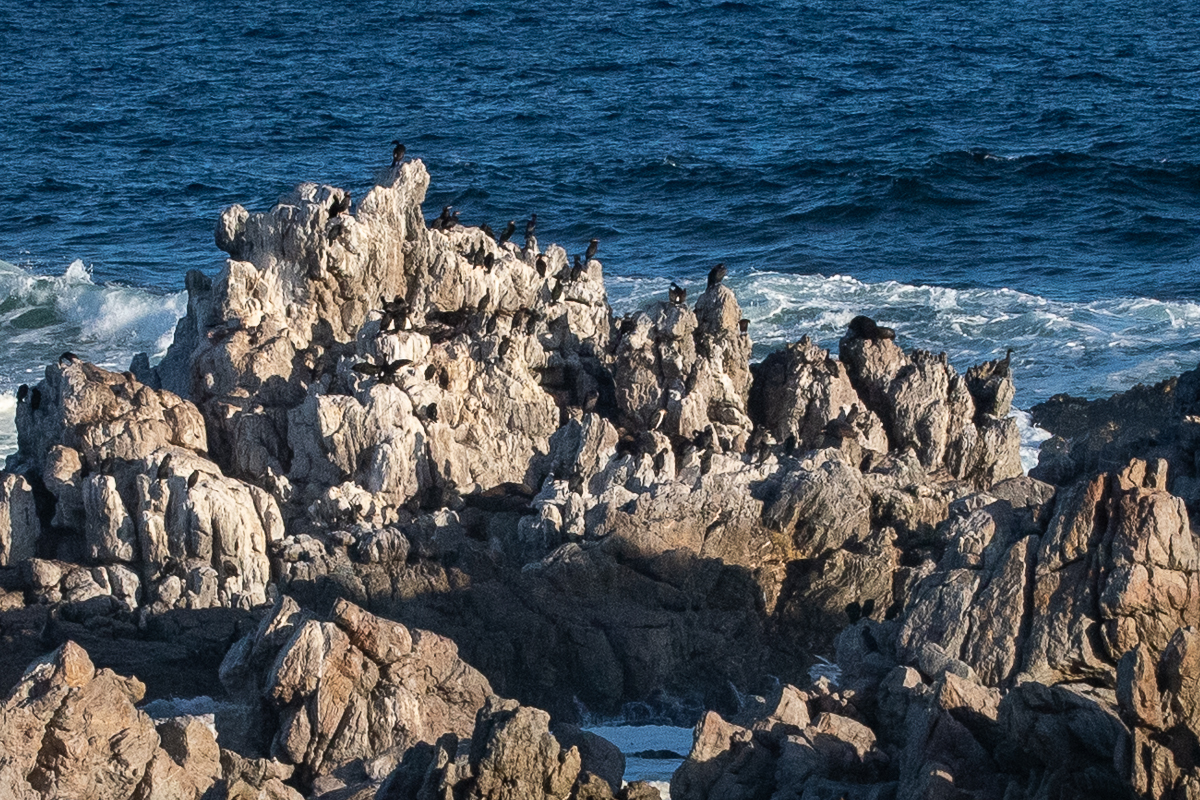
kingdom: Animalia
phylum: Chordata
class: Aves
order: Suliformes
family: Phalacrocoracidae
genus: Phalacrocorax
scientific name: Phalacrocorax neglectus
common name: Bank cormorant
